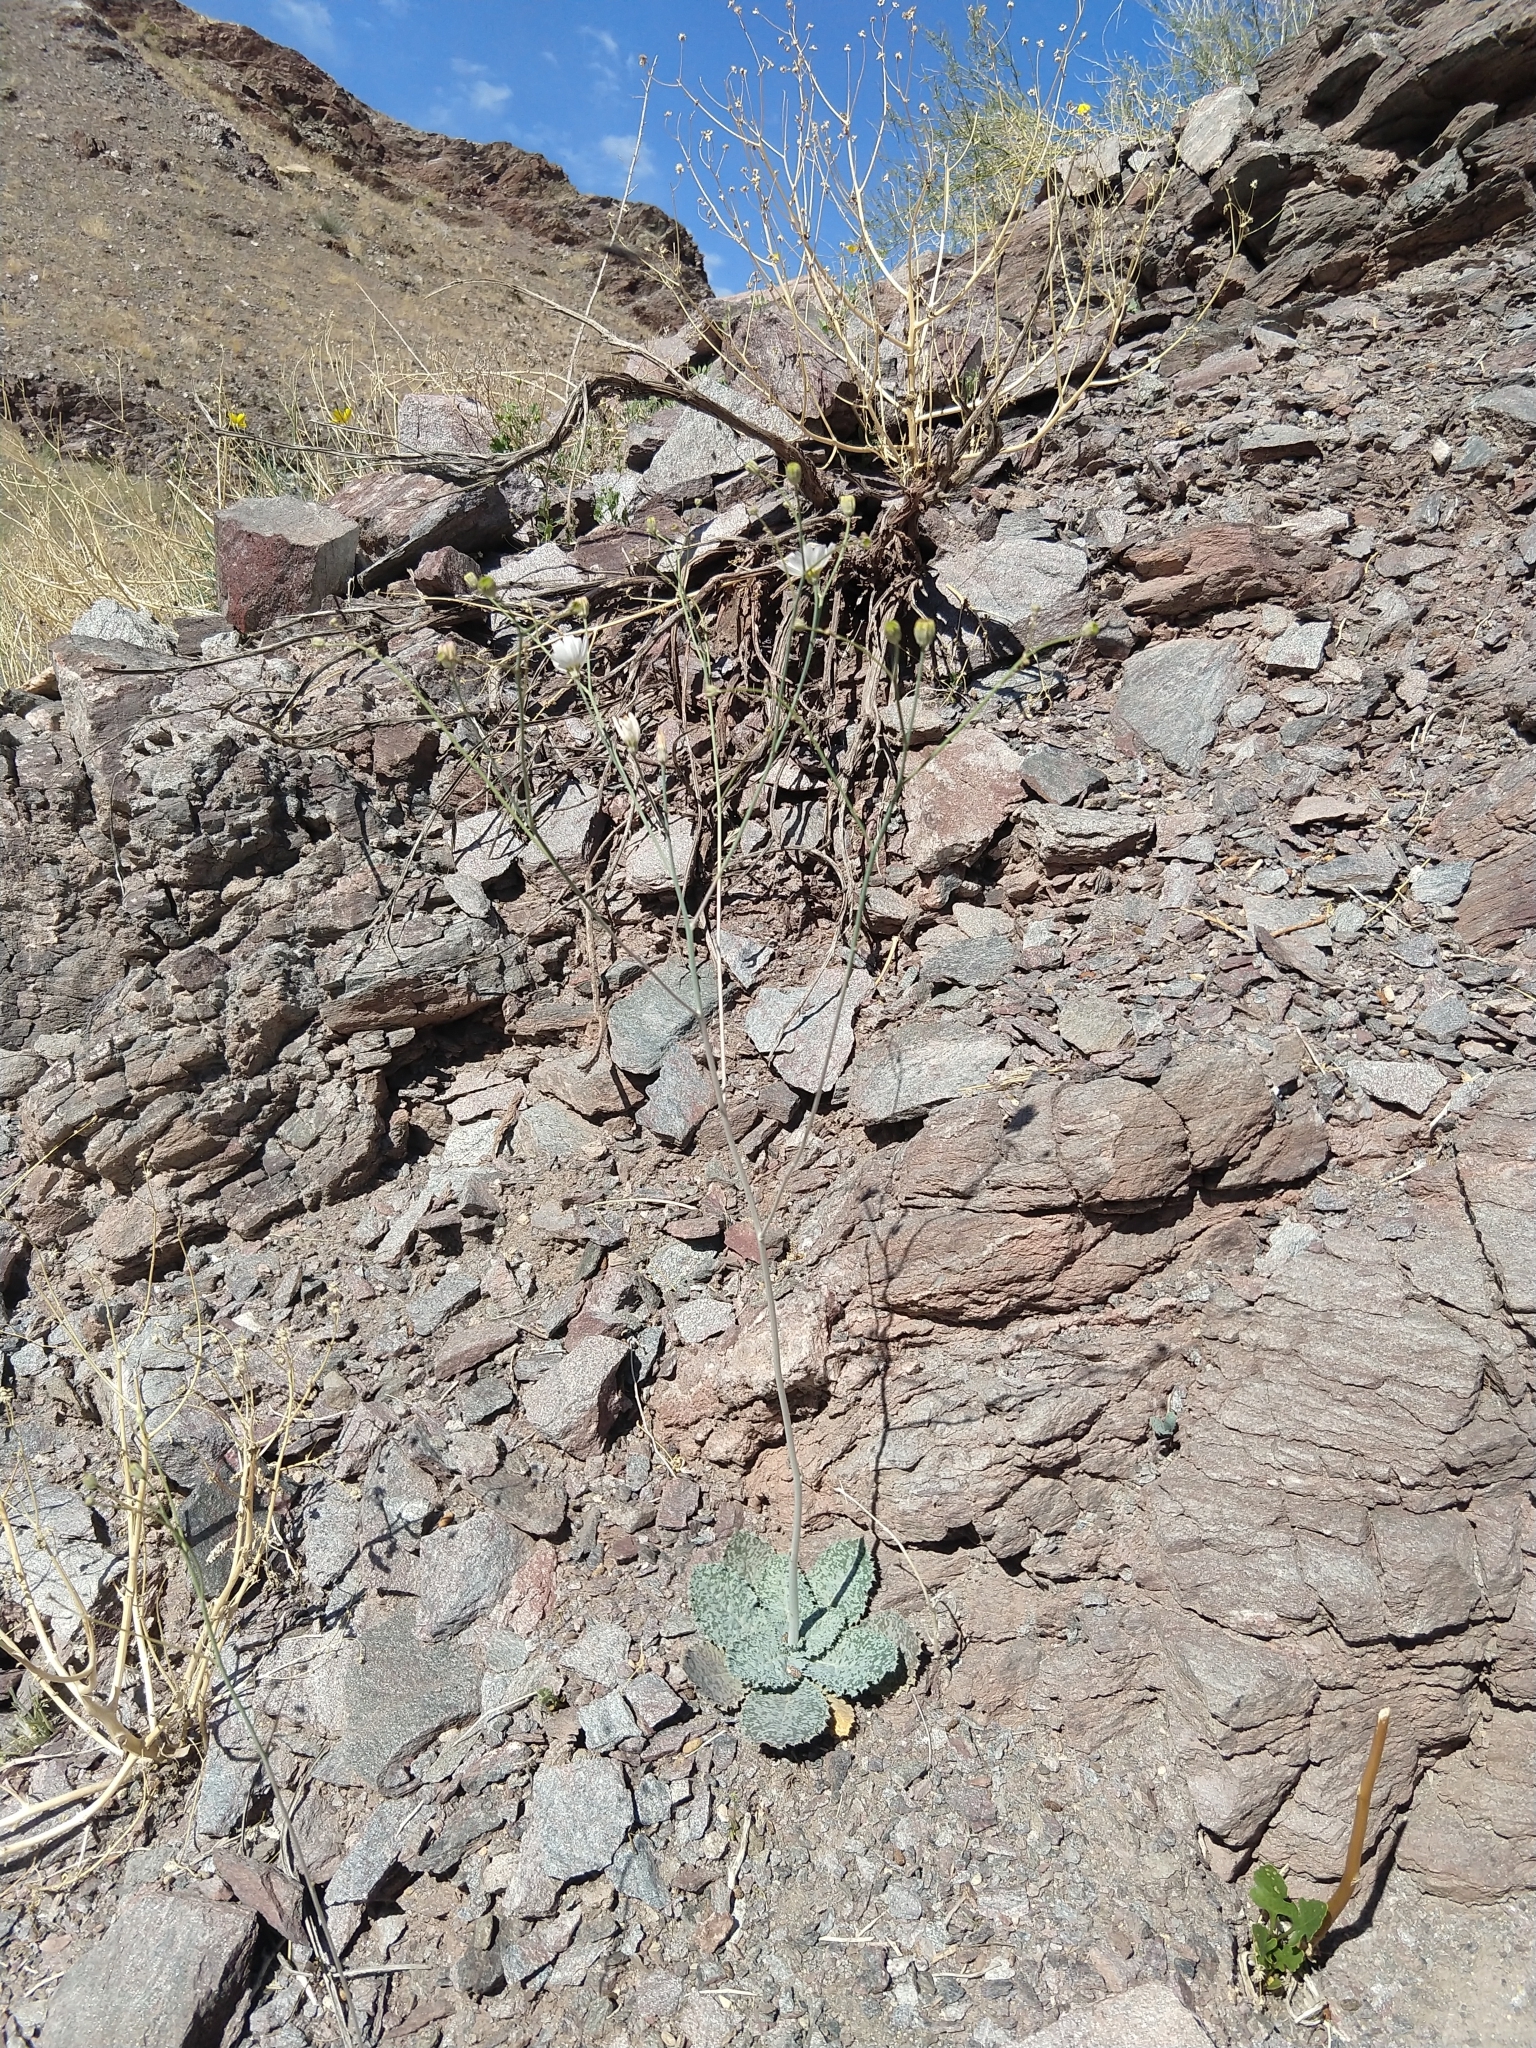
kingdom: Plantae
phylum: Tracheophyta
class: Magnoliopsida
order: Asterales
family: Asteraceae
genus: Atrichoseris
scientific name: Atrichoseris platyphylla
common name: Tobaccoweed
